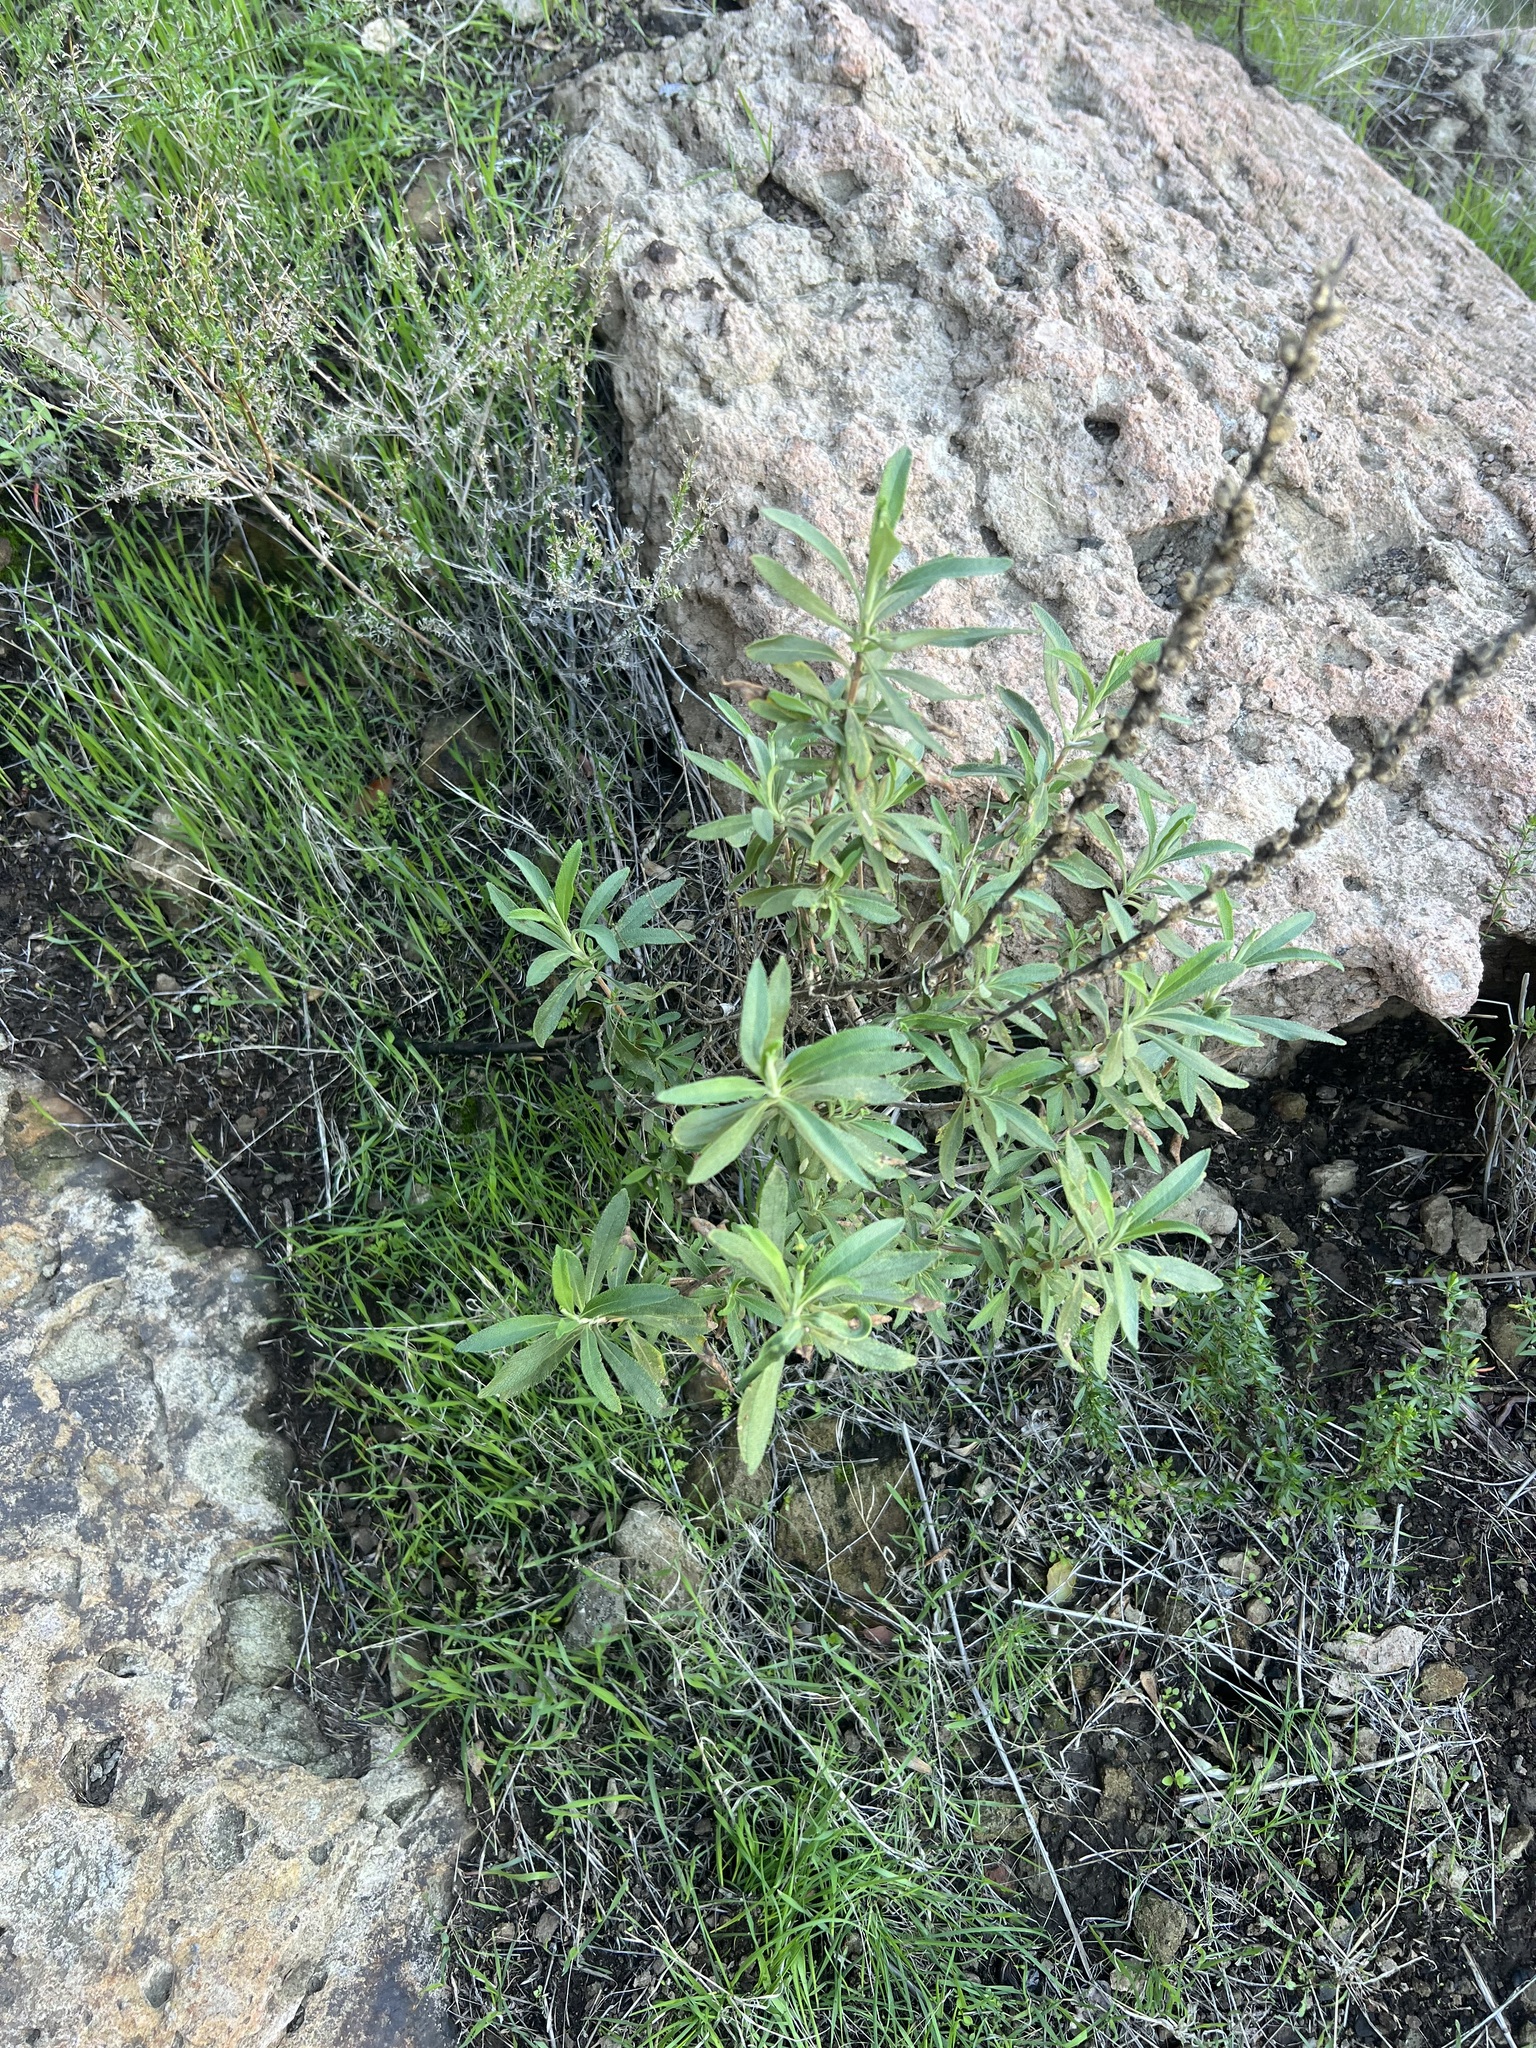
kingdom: Plantae
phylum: Tracheophyta
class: Magnoliopsida
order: Lamiales
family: Lamiaceae
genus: Salvia
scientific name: Salvia mellifera
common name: Black sage
